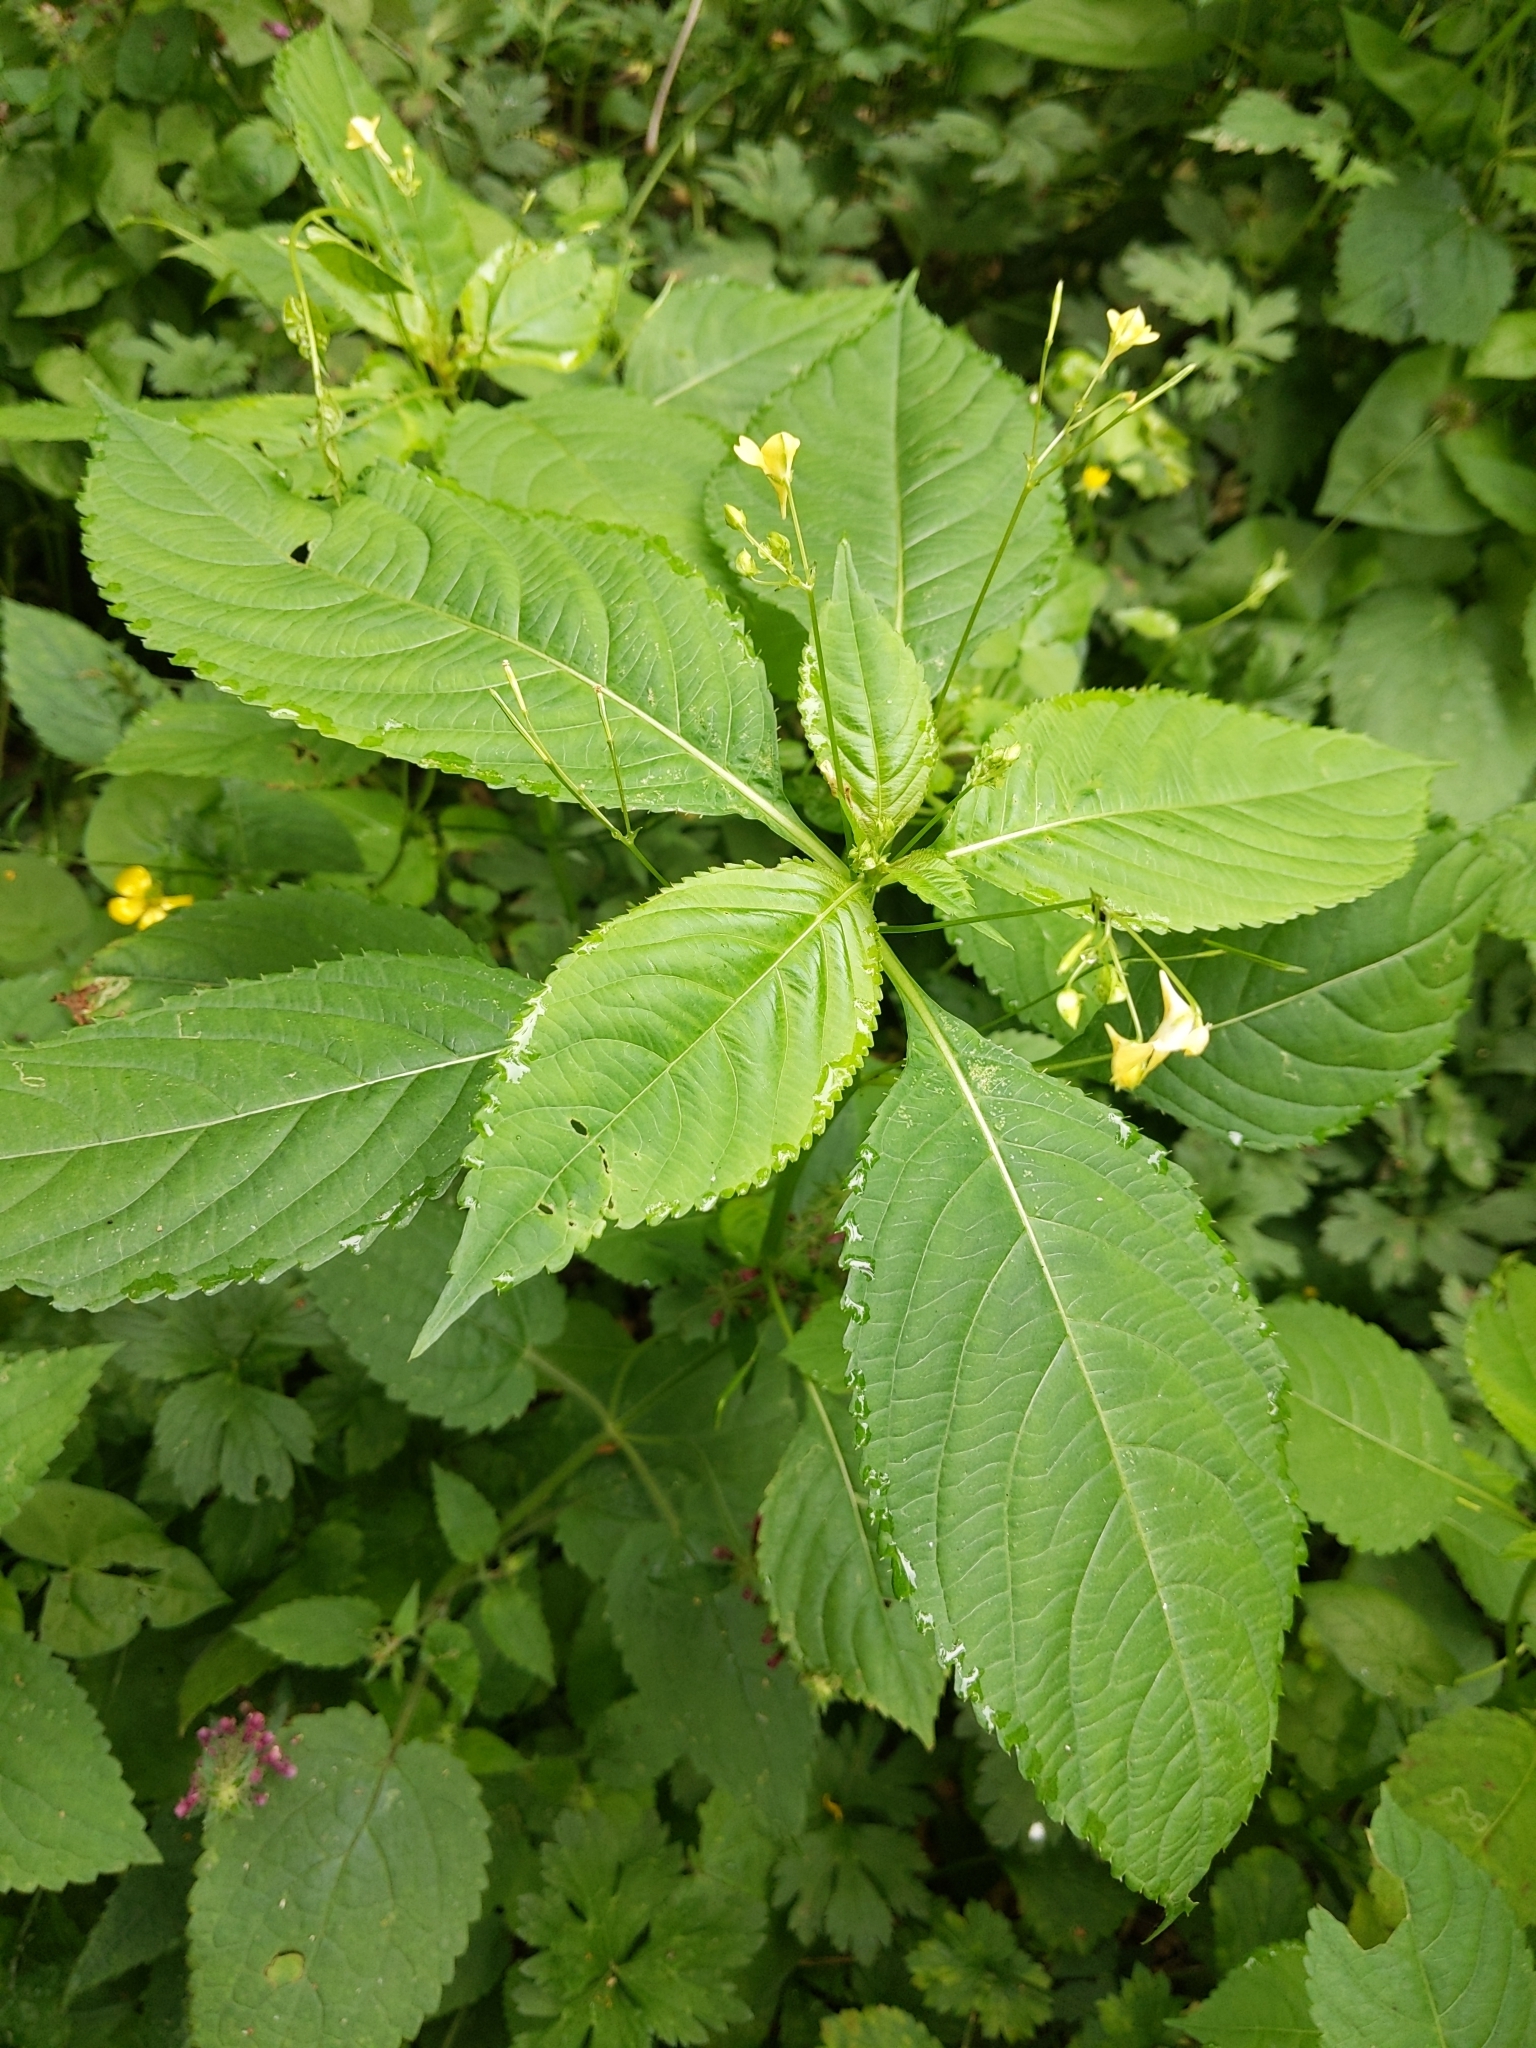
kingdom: Plantae
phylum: Tracheophyta
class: Magnoliopsida
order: Ericales
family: Balsaminaceae
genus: Impatiens
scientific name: Impatiens parviflora
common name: Small balsam
